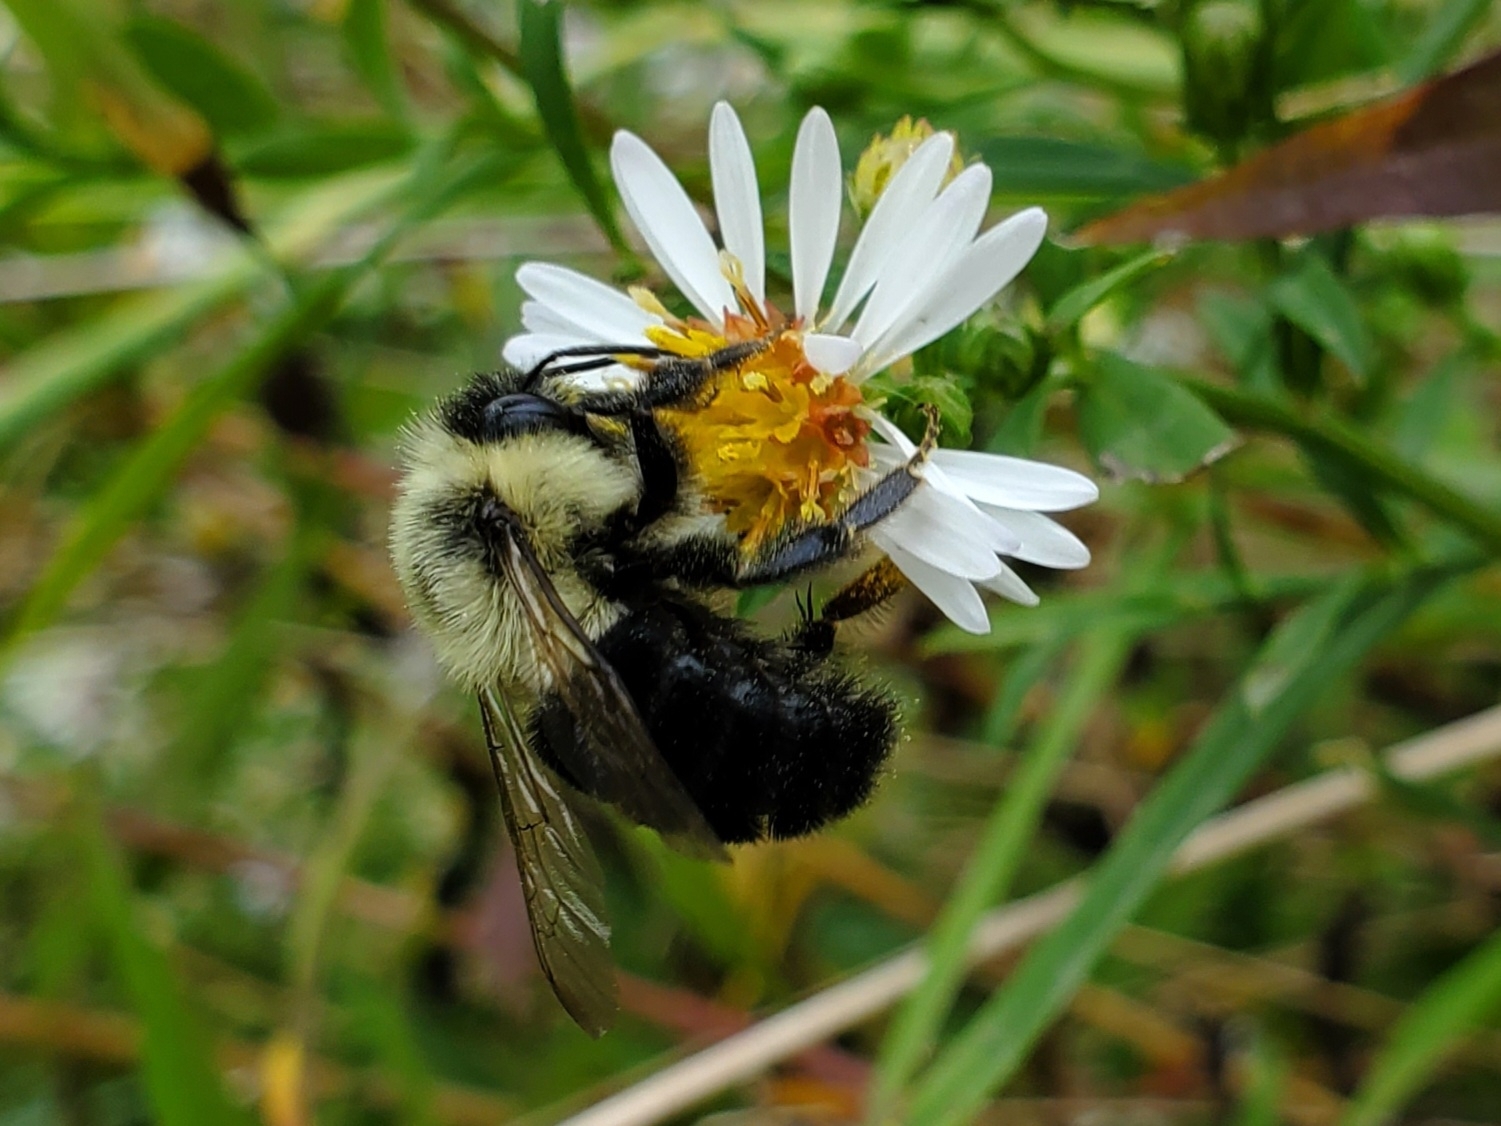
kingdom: Animalia
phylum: Arthropoda
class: Insecta
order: Hymenoptera
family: Apidae
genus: Bombus
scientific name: Bombus impatiens
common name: Common eastern bumble bee
